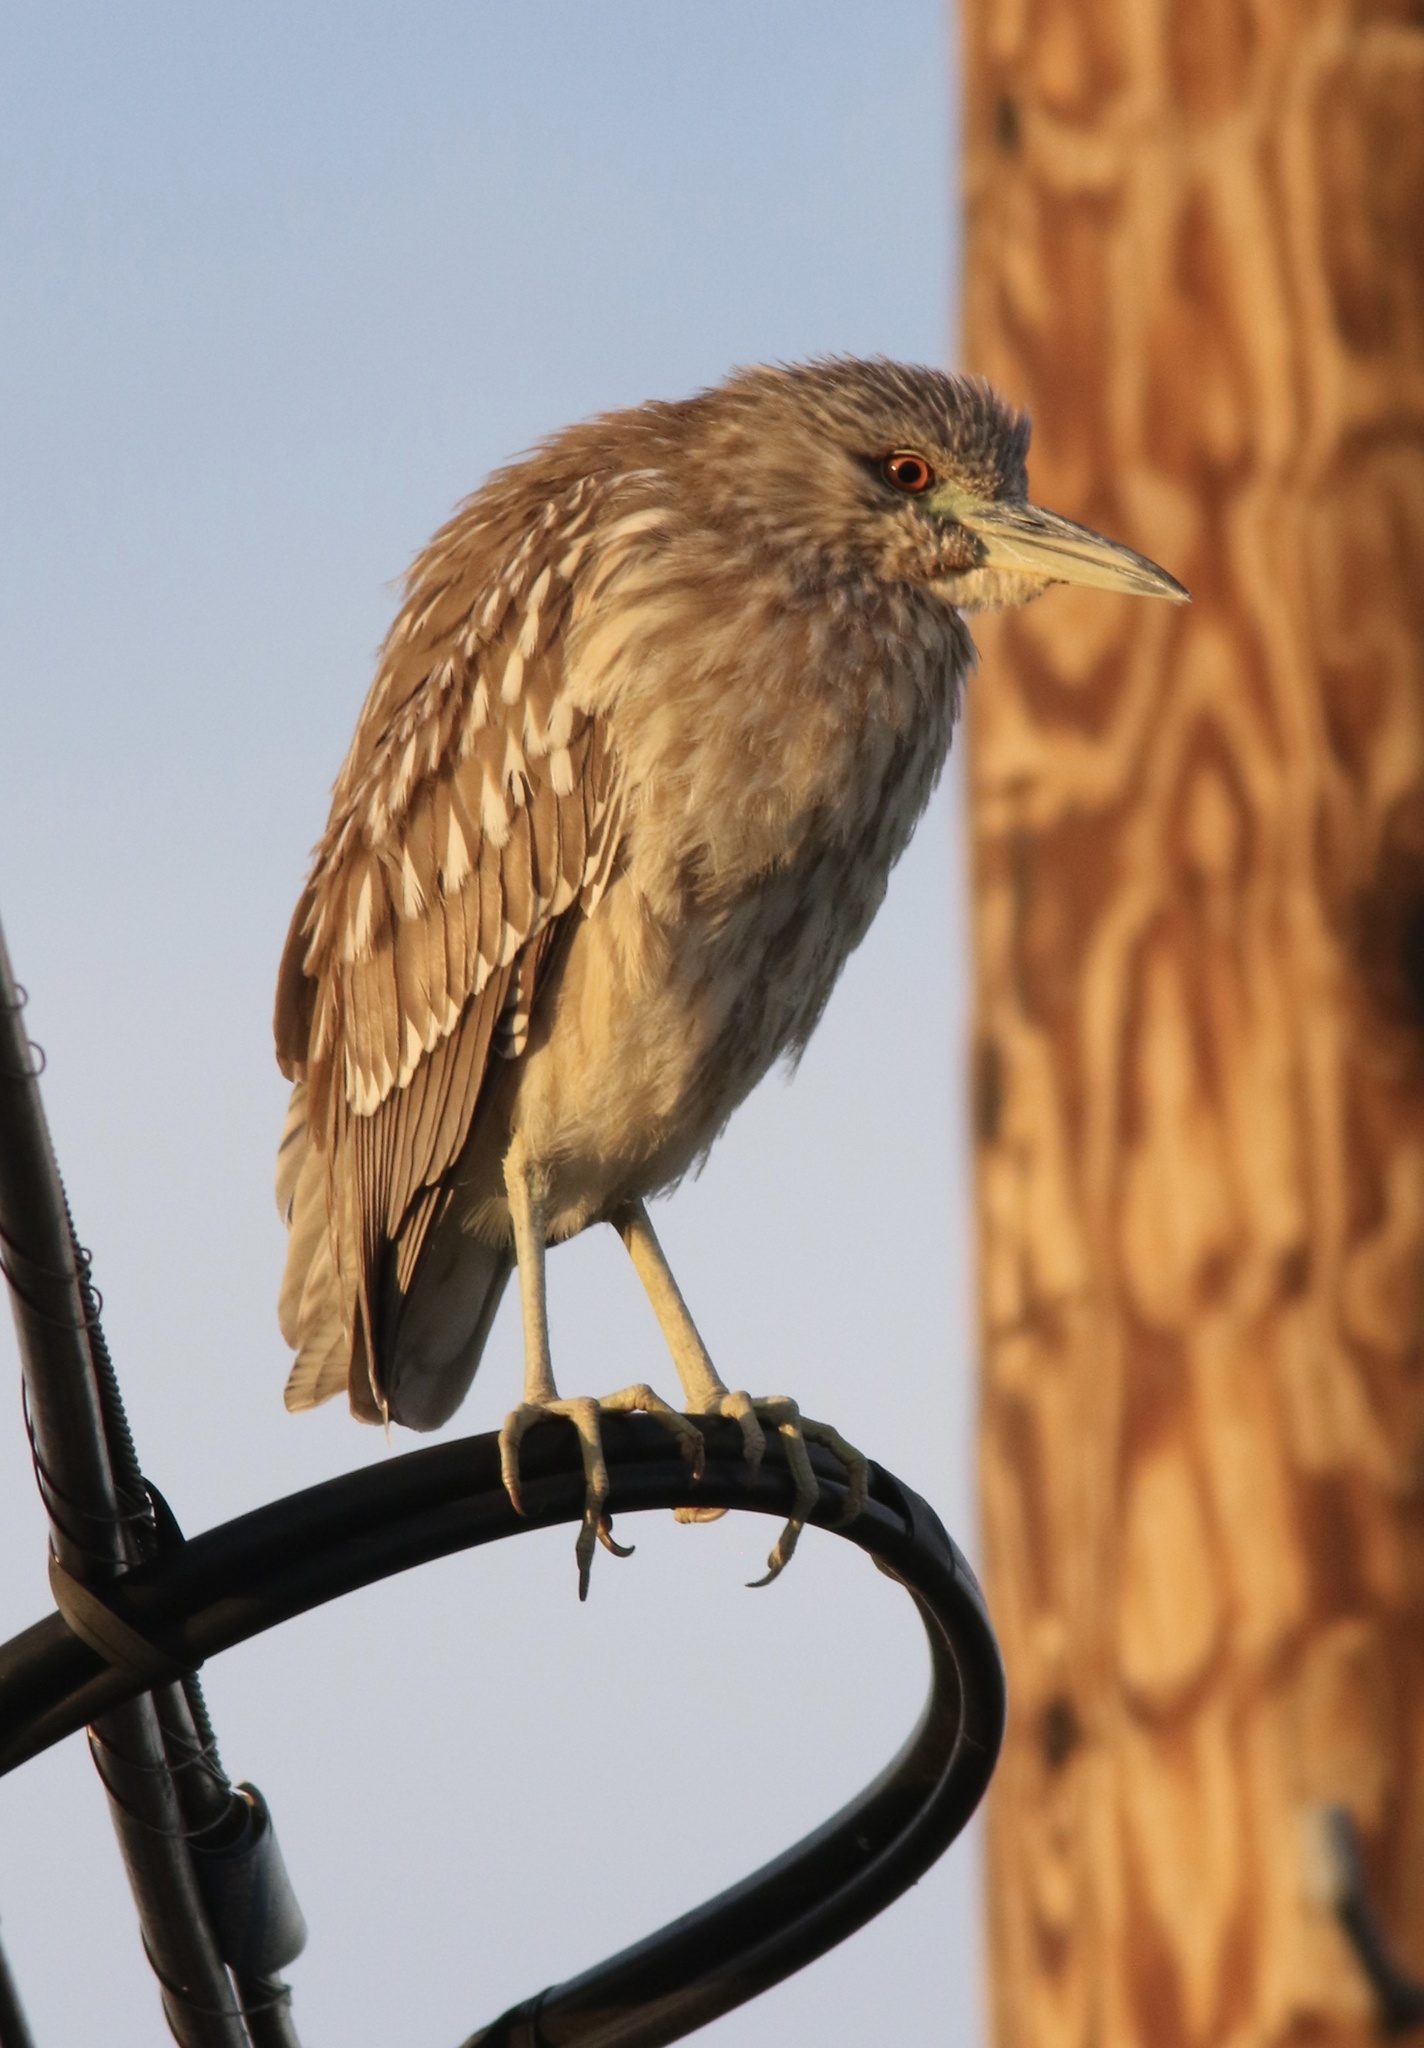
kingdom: Animalia
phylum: Chordata
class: Aves
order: Pelecaniformes
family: Ardeidae
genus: Nycticorax
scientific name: Nycticorax nycticorax
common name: Black-crowned night heron
